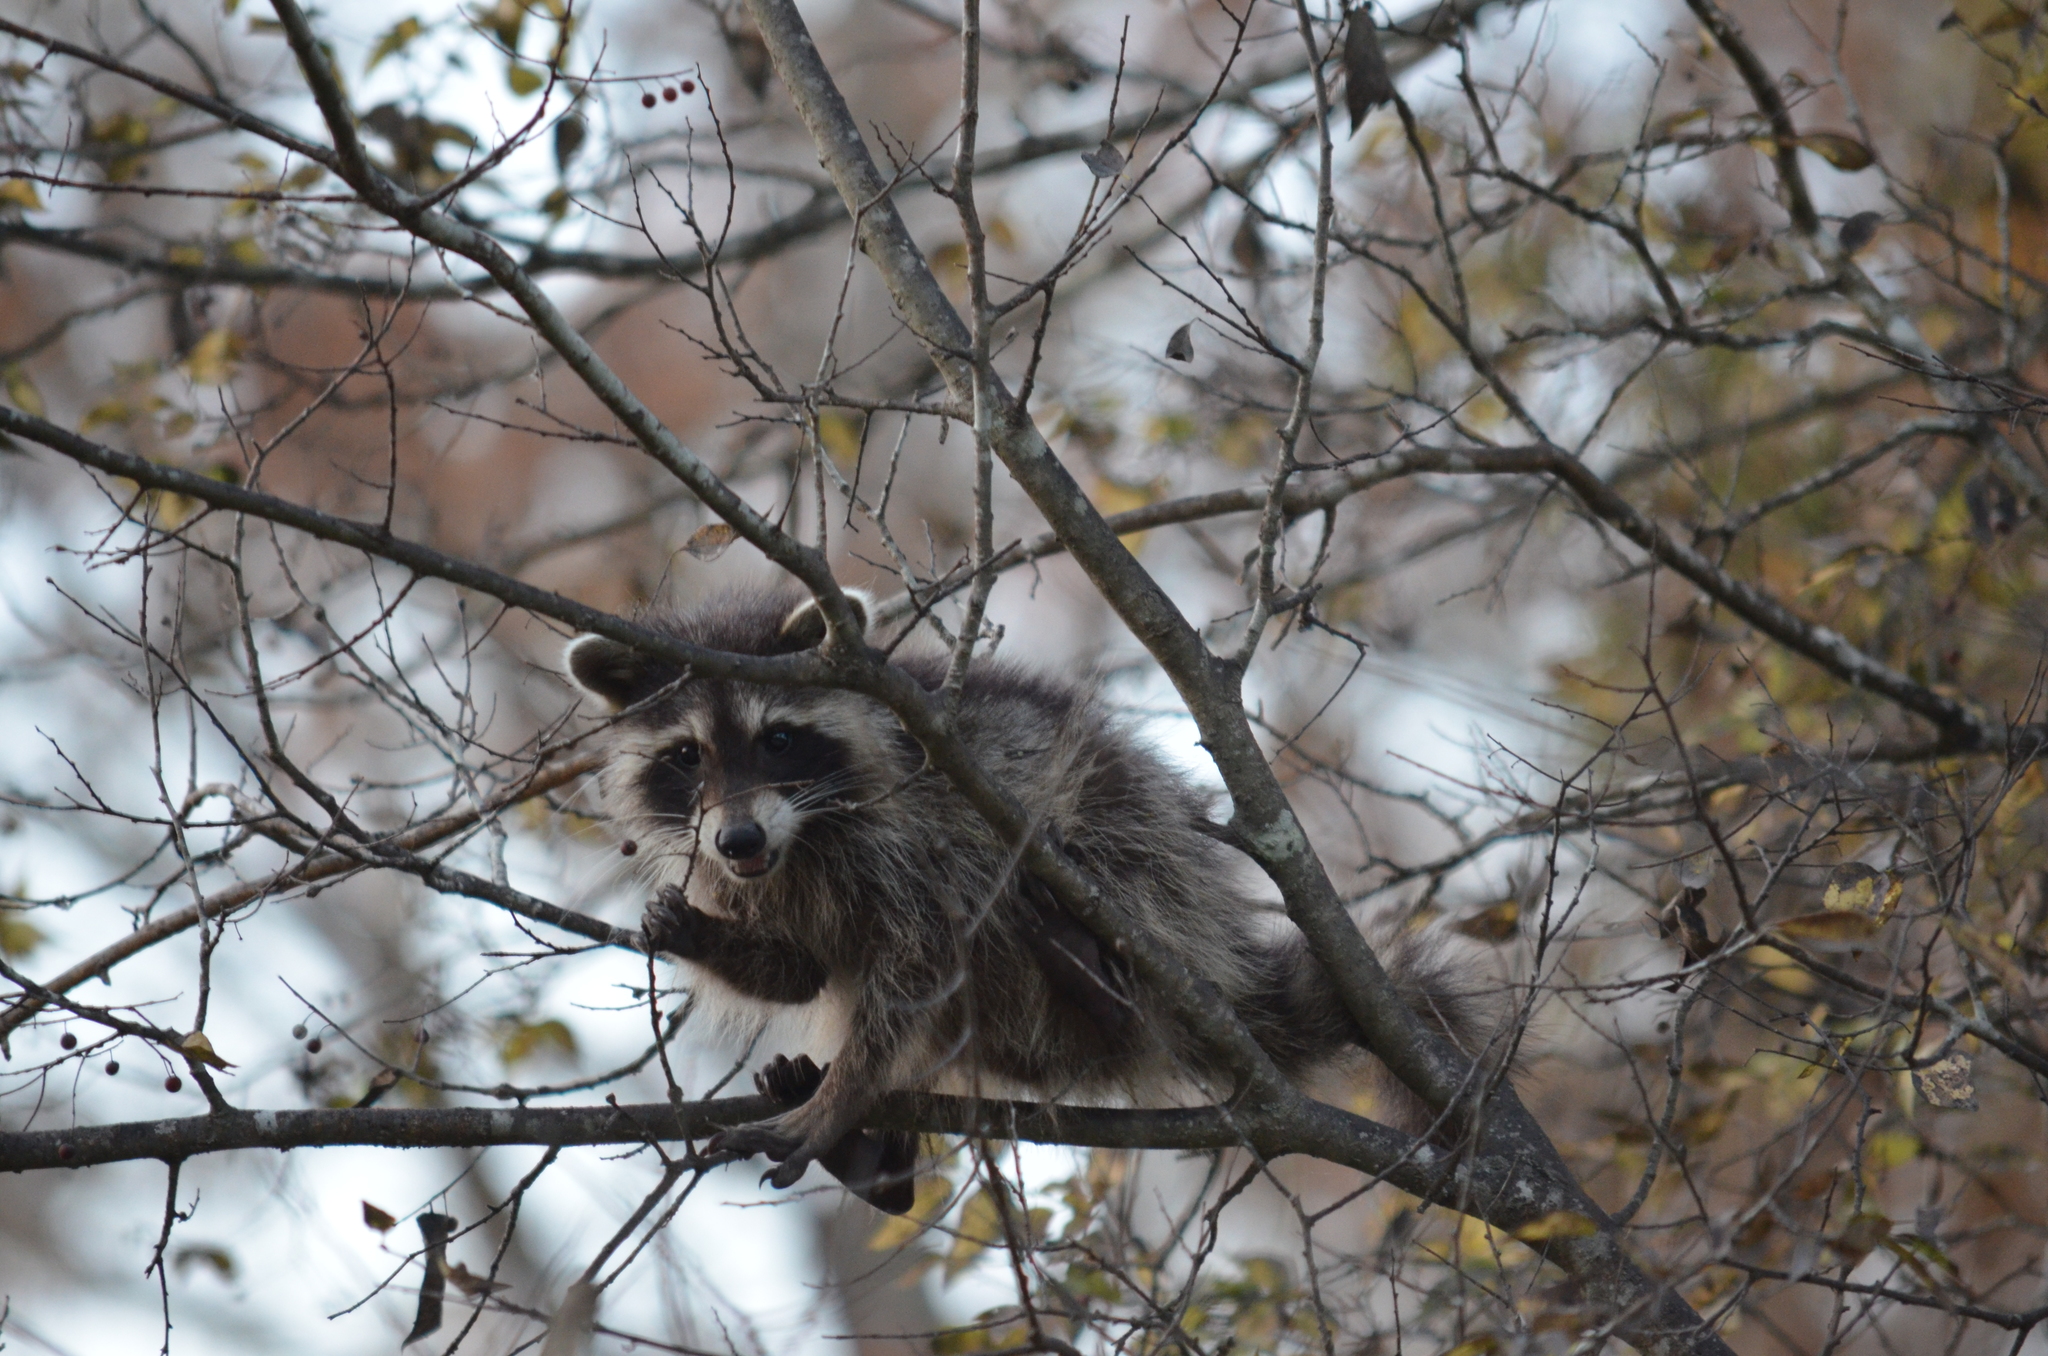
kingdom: Animalia
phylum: Chordata
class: Mammalia
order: Carnivora
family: Procyonidae
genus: Procyon
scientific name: Procyon lotor
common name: Raccoon
